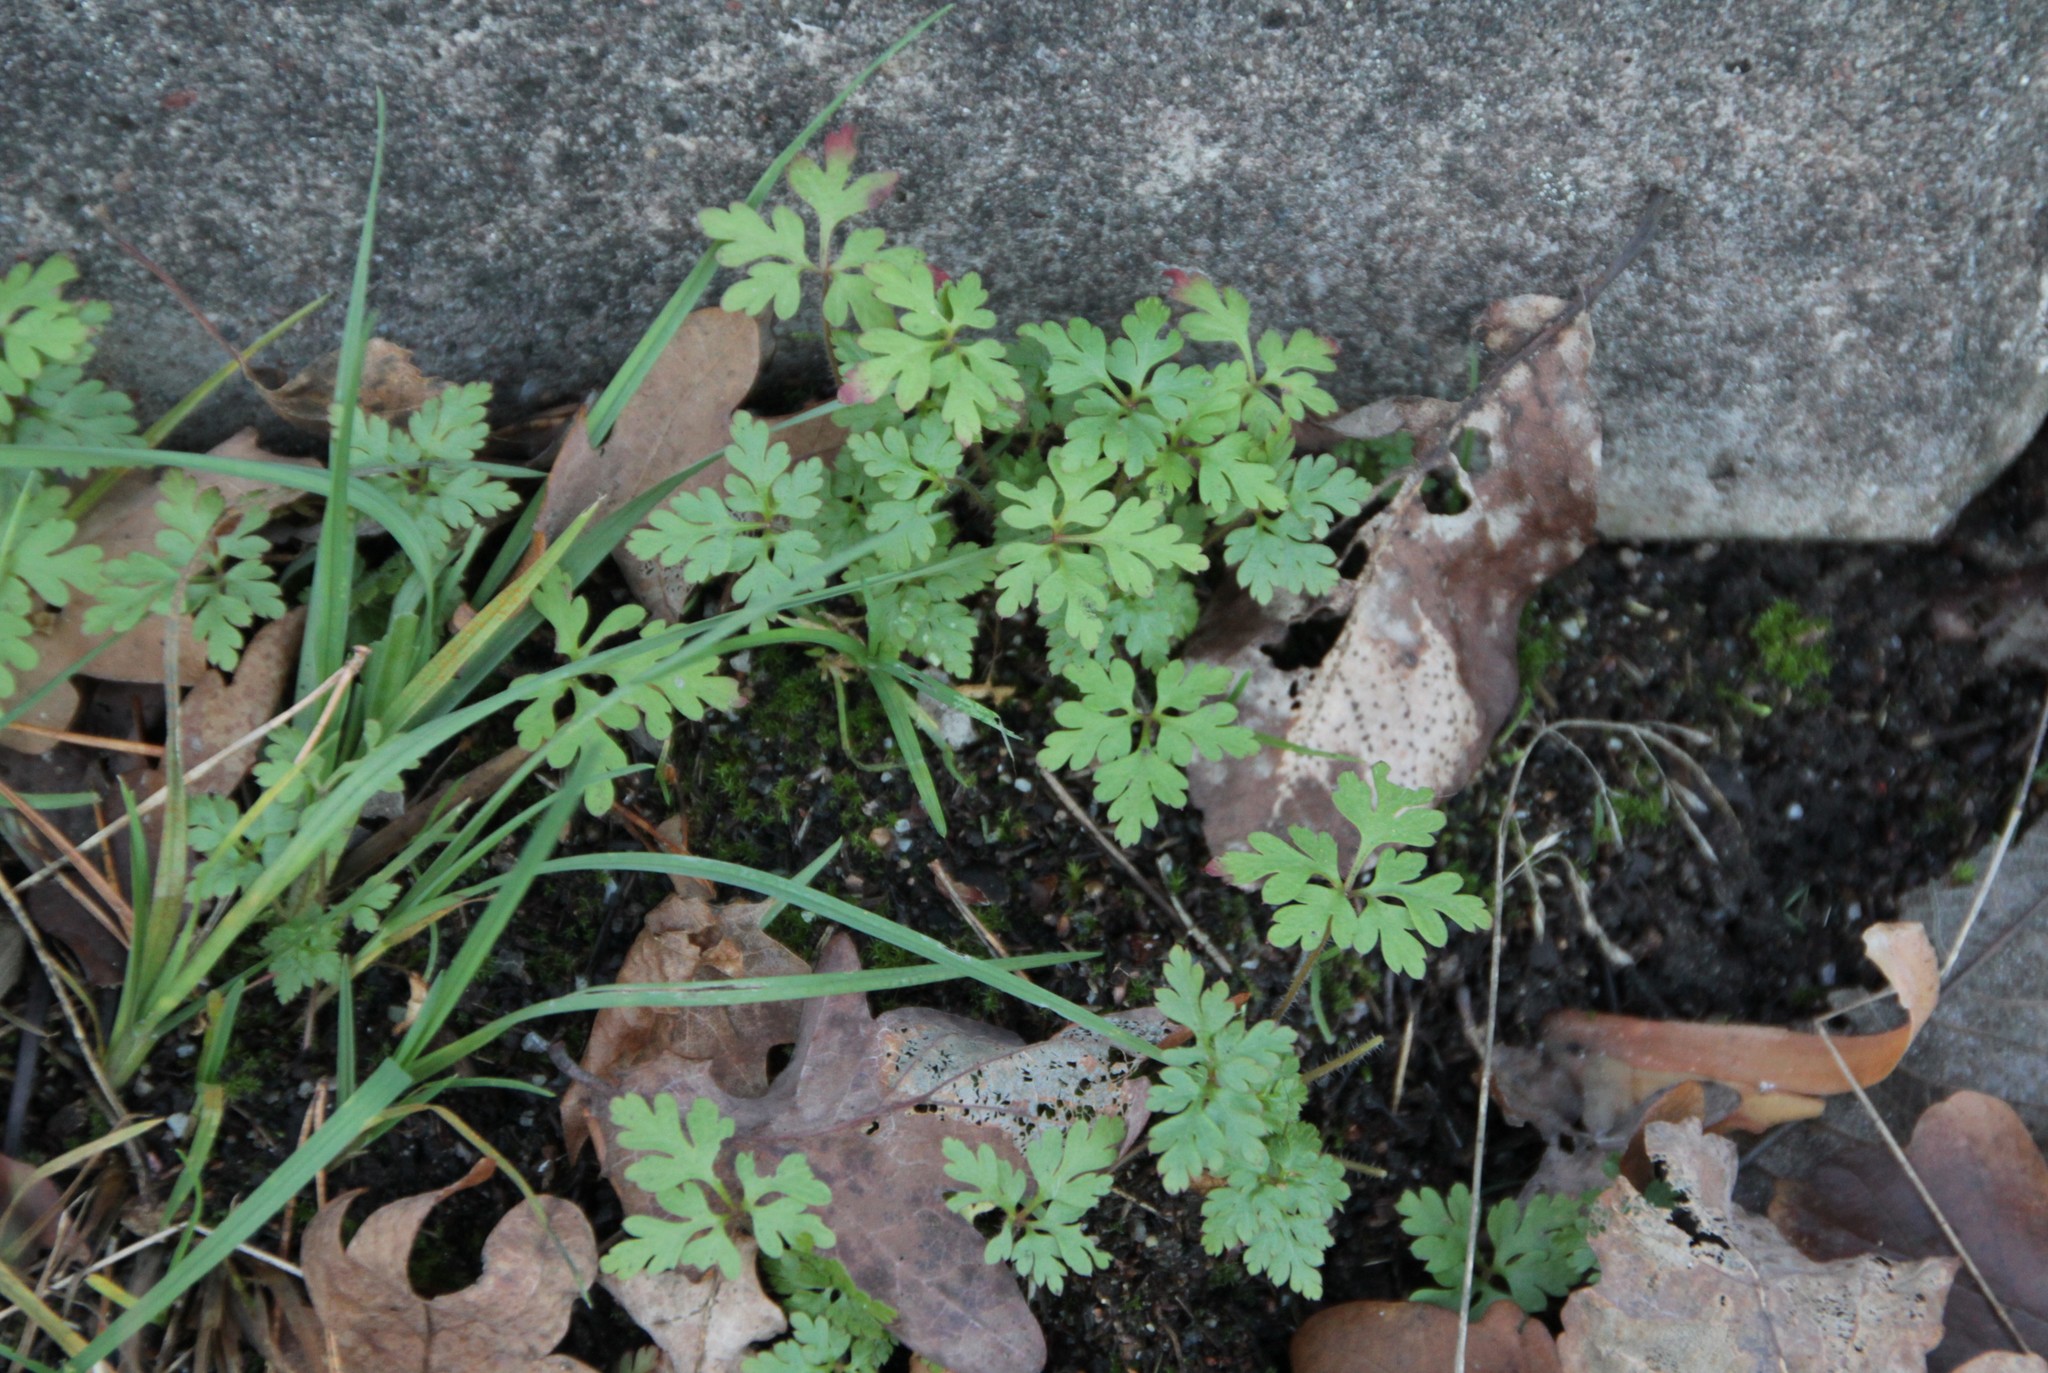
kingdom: Plantae
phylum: Tracheophyta
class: Magnoliopsida
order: Geraniales
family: Geraniaceae
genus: Geranium
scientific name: Geranium robertianum
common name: Herb-robert
